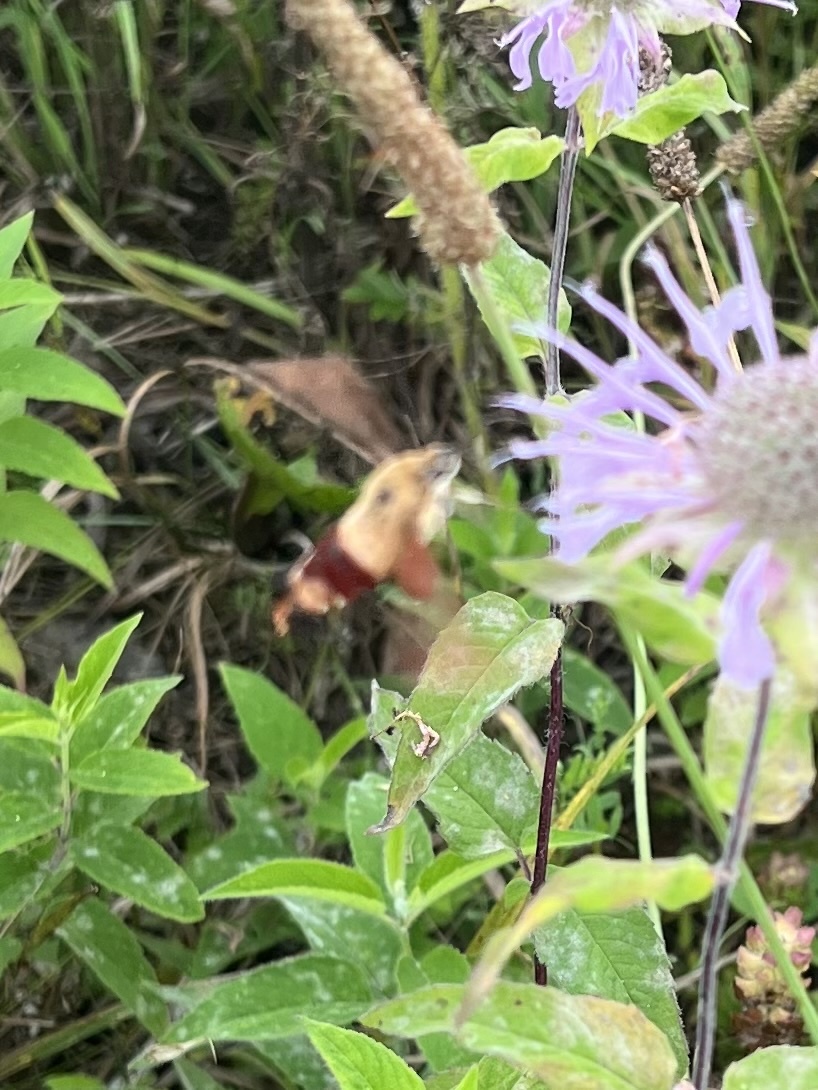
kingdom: Animalia
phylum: Arthropoda
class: Insecta
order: Lepidoptera
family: Sphingidae
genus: Hemaris
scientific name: Hemaris thysbe
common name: Common clear-wing
